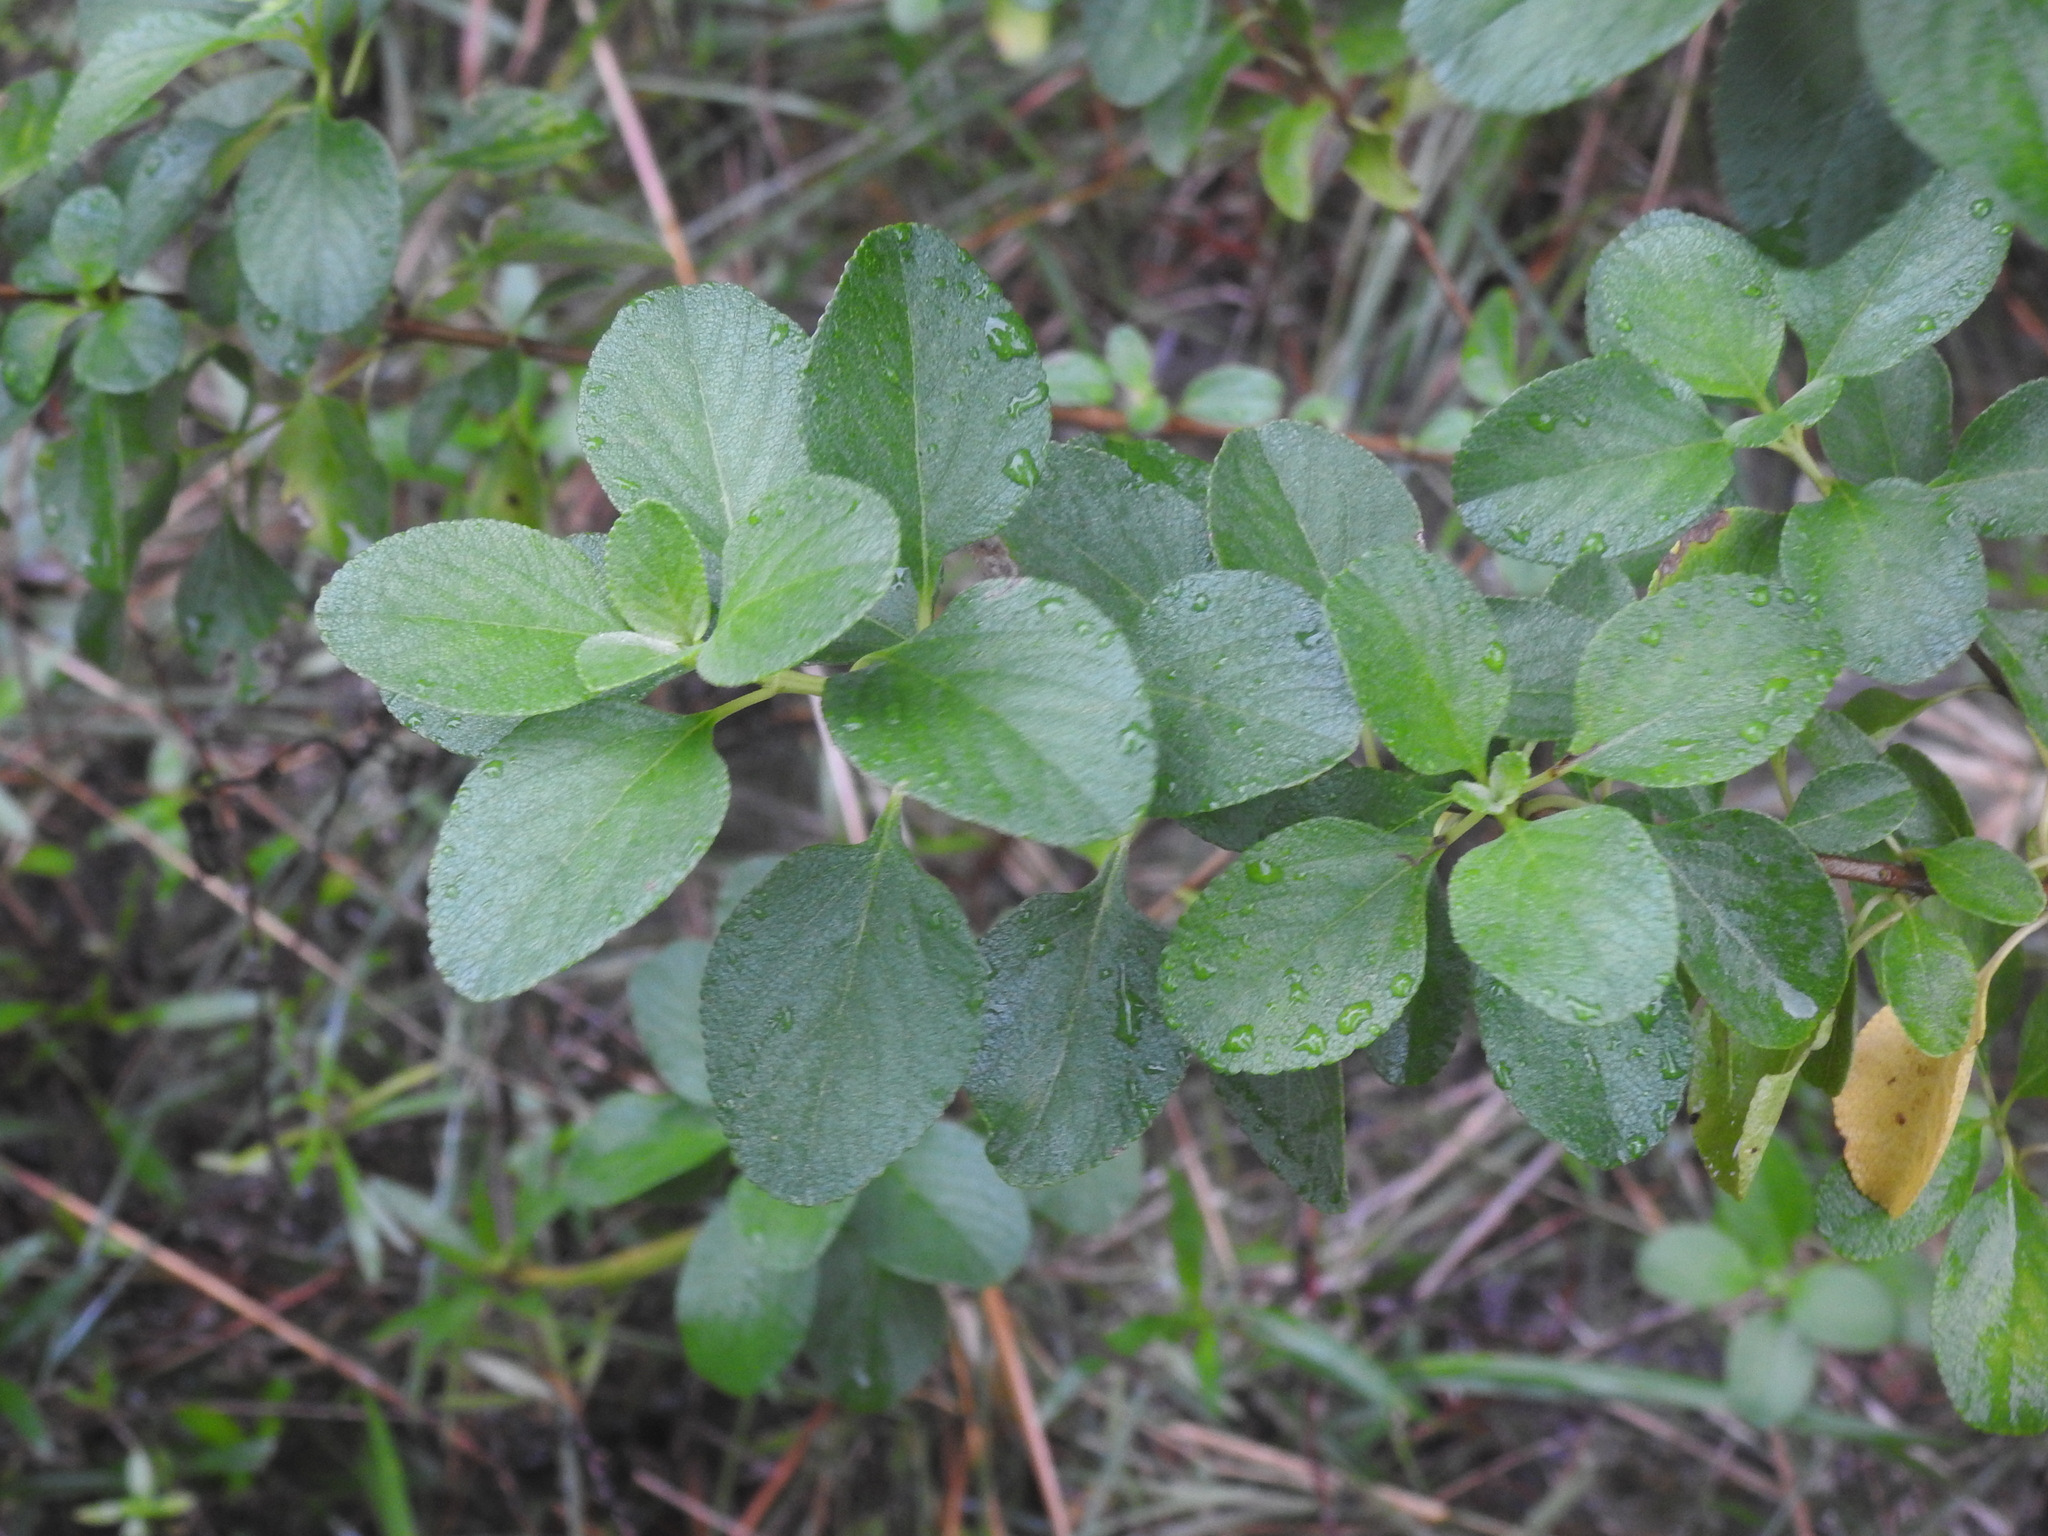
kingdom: Plantae
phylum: Tracheophyta
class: Magnoliopsida
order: Lamiales
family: Verbenaceae
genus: Lantana
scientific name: Lantana involucrata
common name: Black sage
